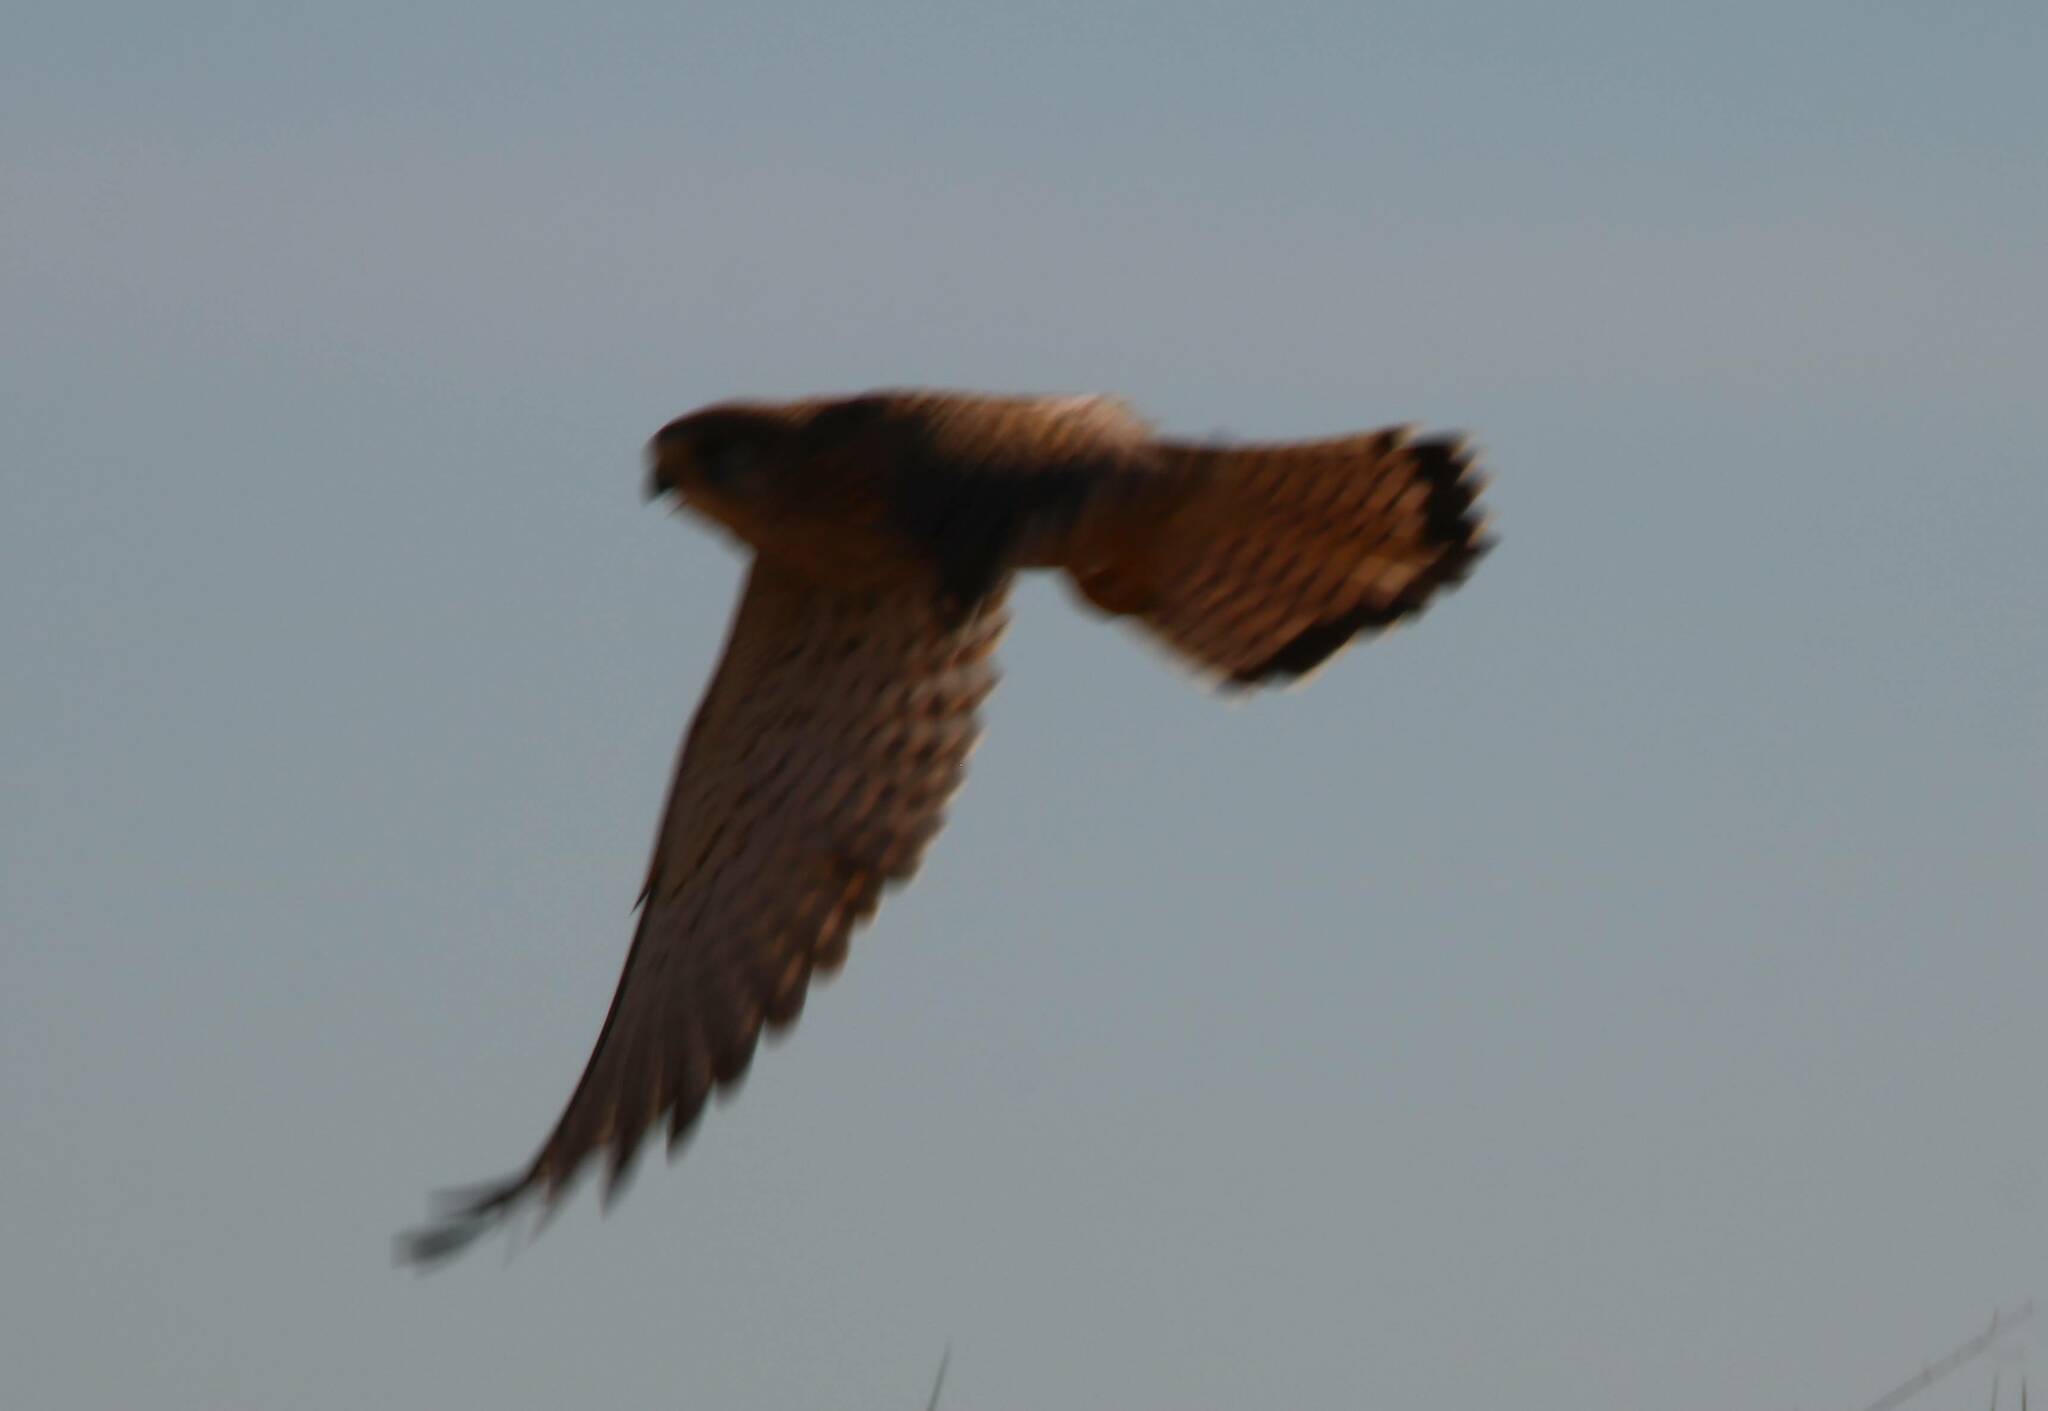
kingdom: Animalia
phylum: Chordata
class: Aves
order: Falconiformes
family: Falconidae
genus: Falco
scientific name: Falco tinnunculus
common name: Common kestrel
